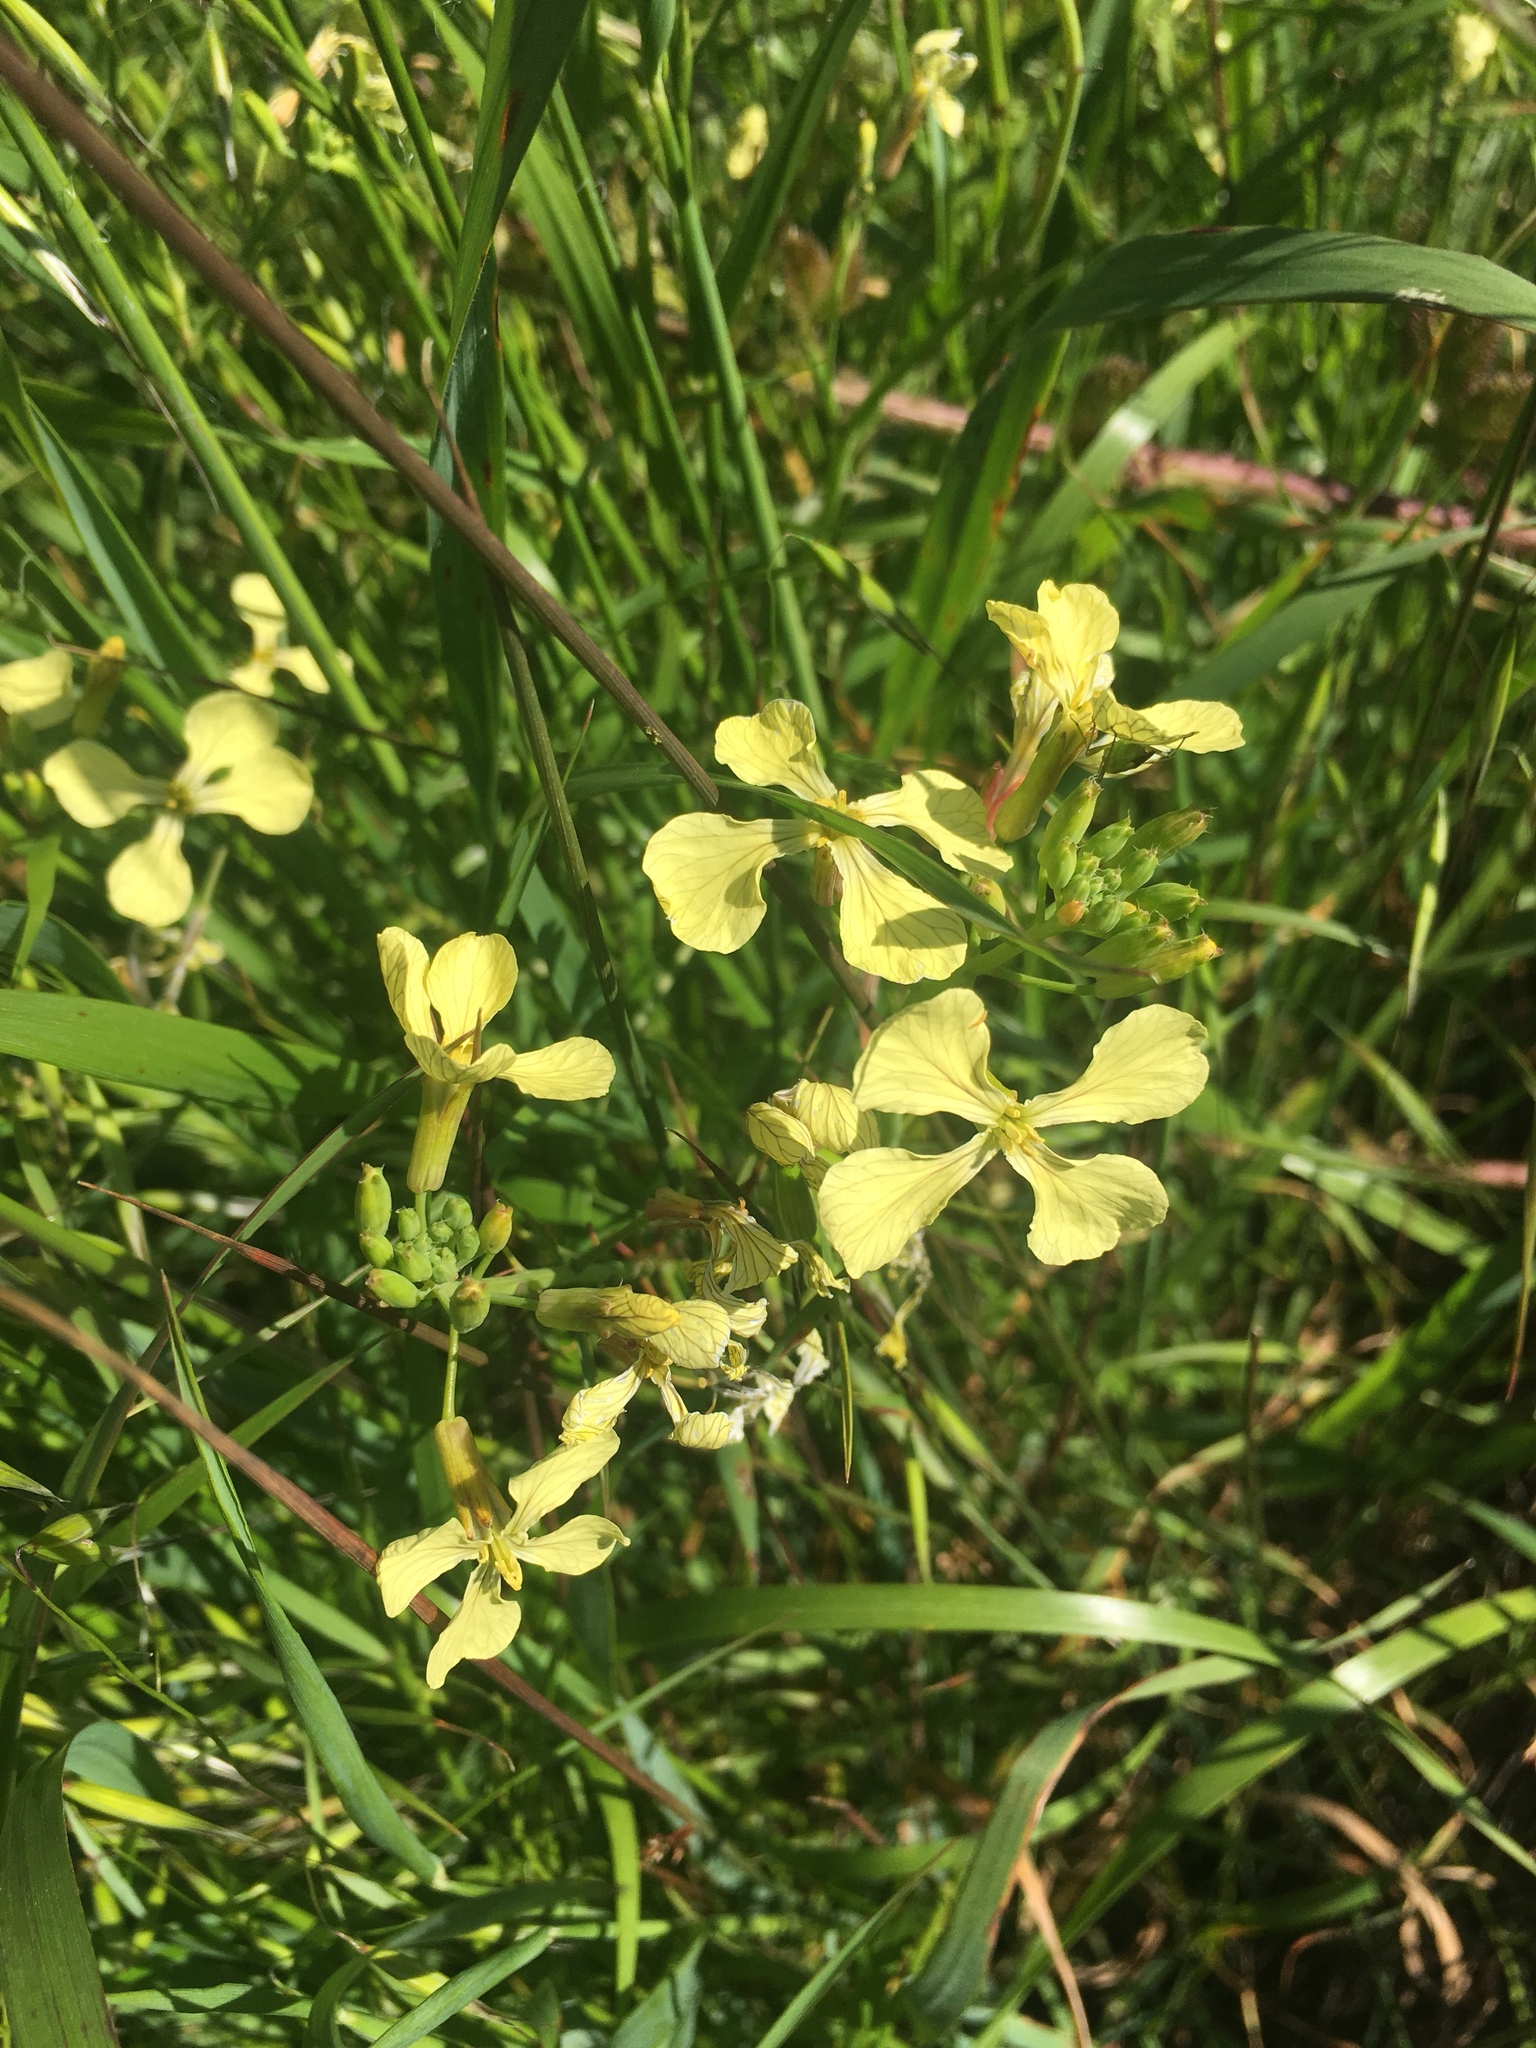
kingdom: Plantae
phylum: Tracheophyta
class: Magnoliopsida
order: Brassicales
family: Brassicaceae
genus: Raphanus
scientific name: Raphanus sativus
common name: Cultivated radish
